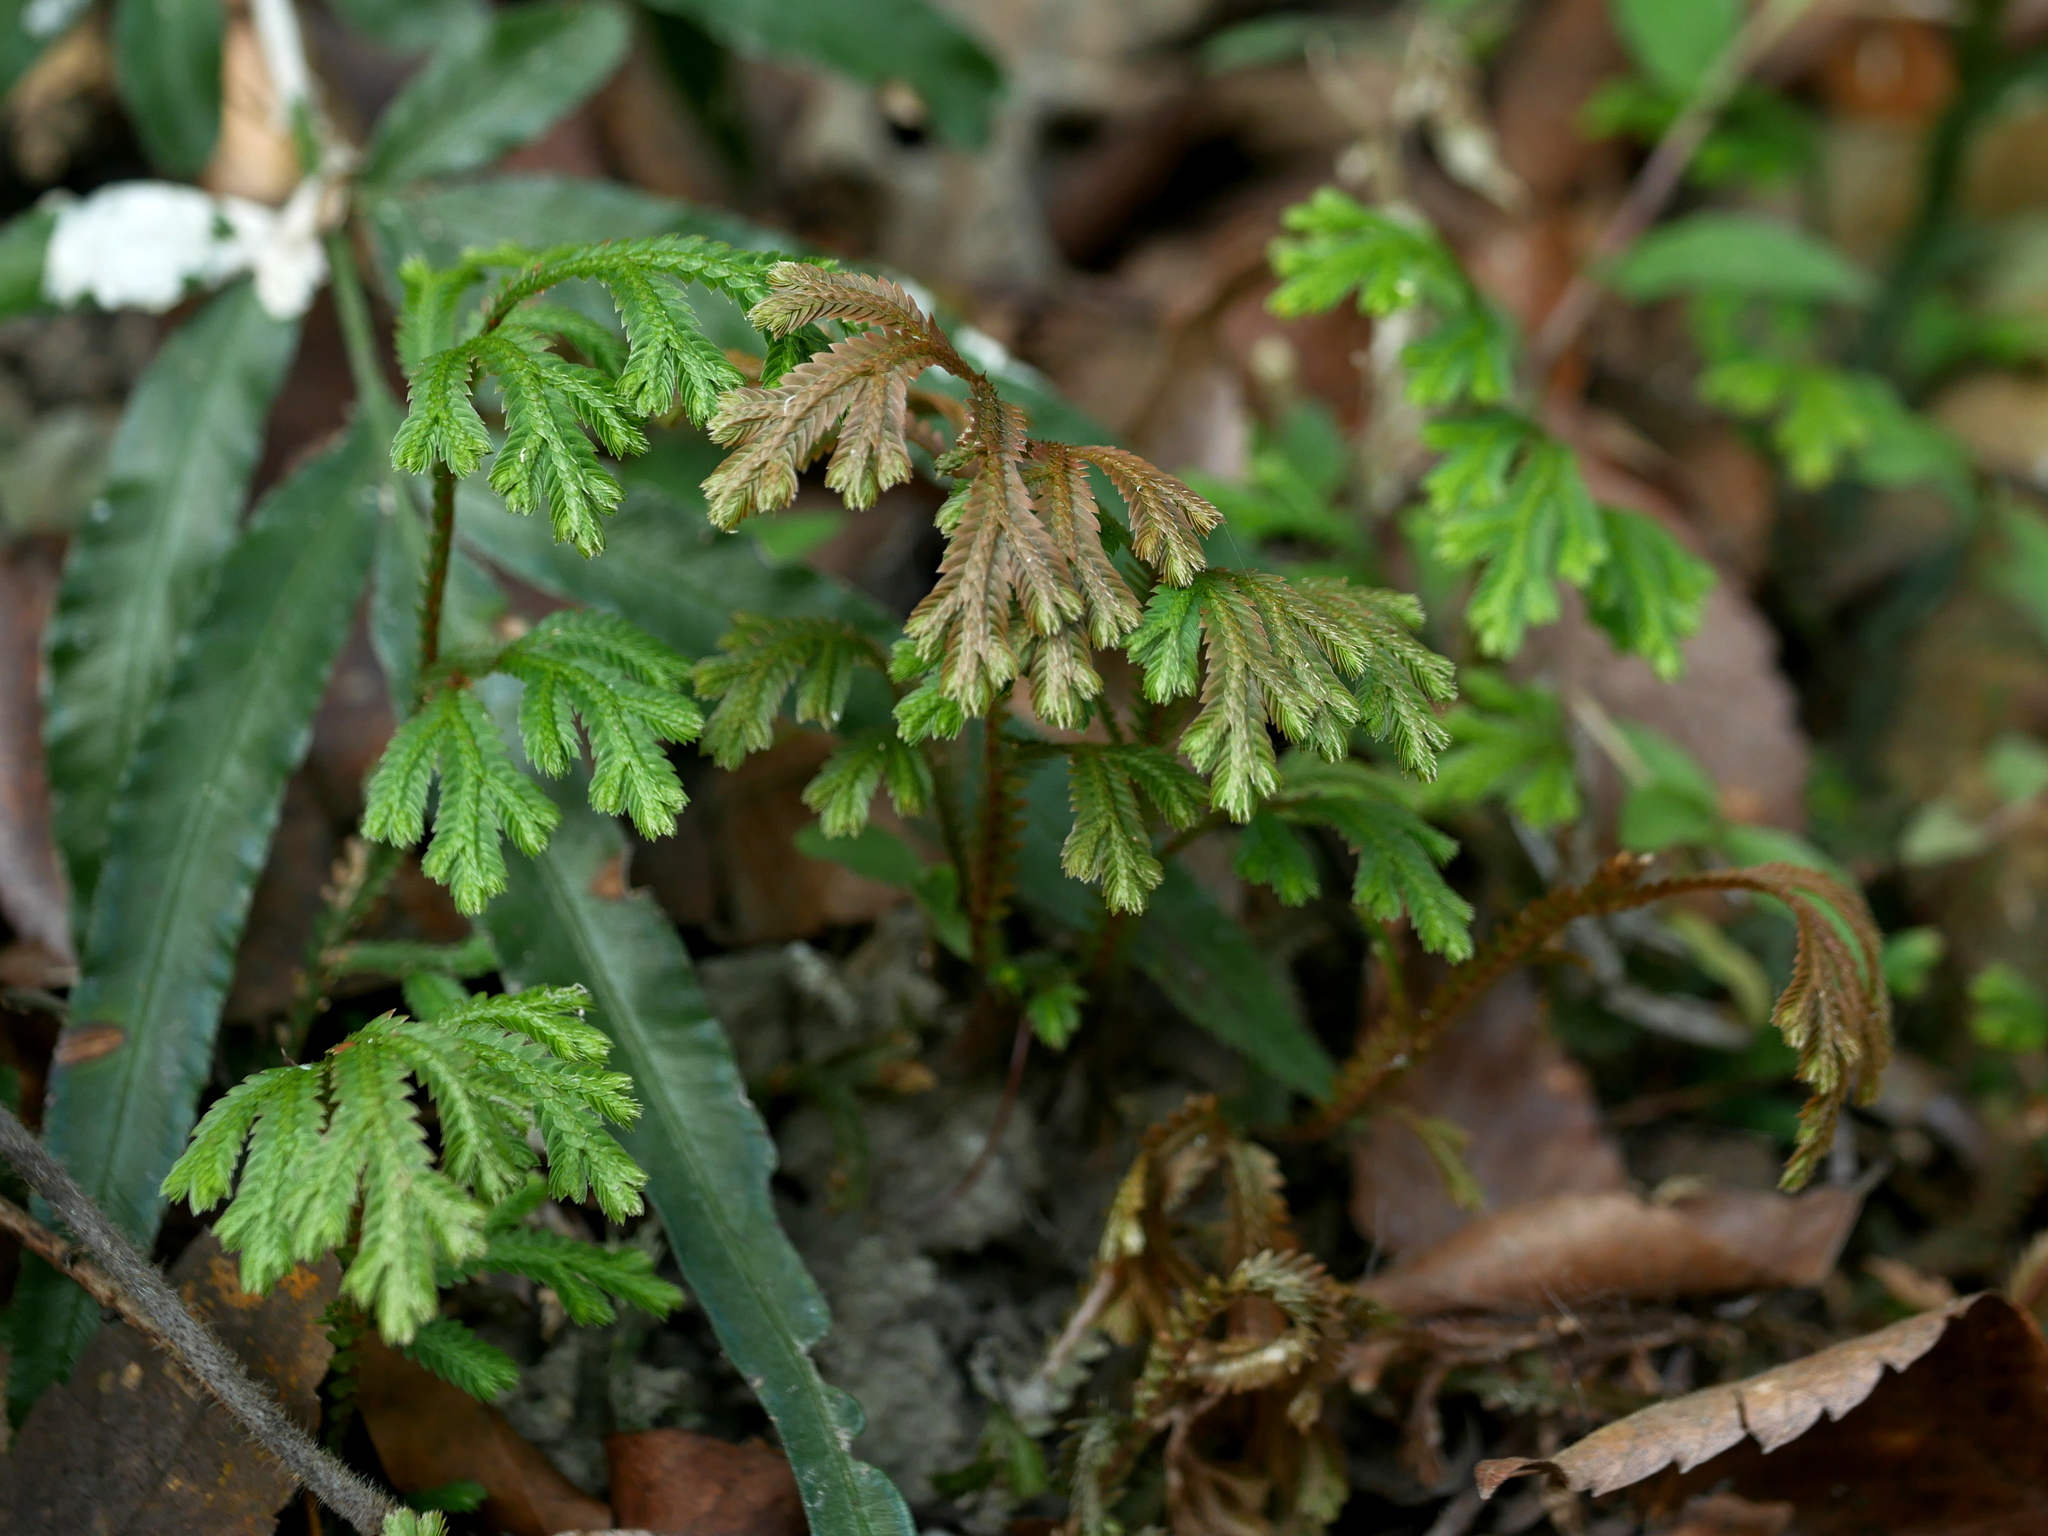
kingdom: Plantae
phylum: Tracheophyta
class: Lycopodiopsida
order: Selaginellales
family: Selaginellaceae
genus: Selaginella
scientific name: Selaginella repanda
